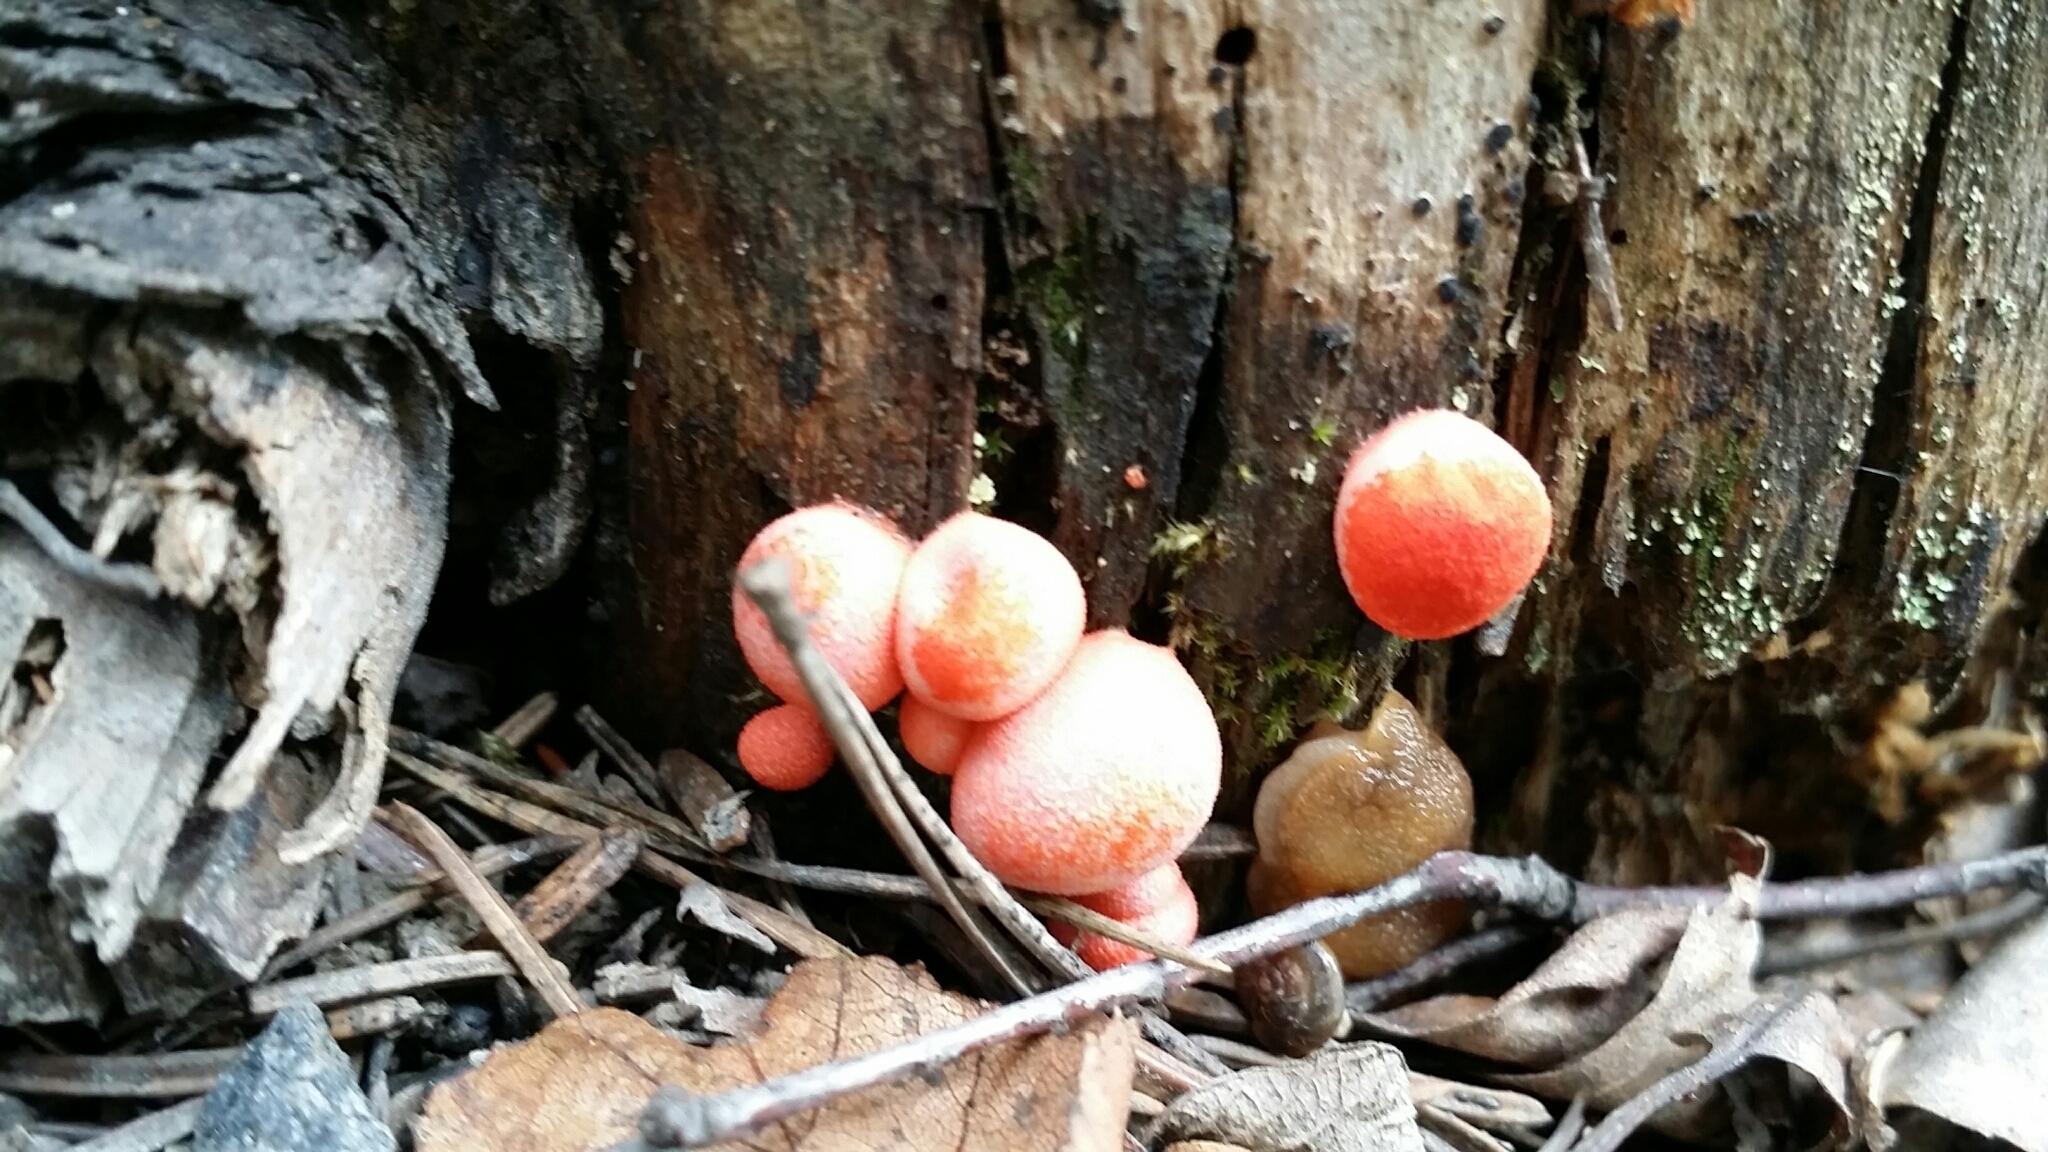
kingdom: Protozoa
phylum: Mycetozoa
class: Myxomycetes
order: Cribrariales
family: Tubiferaceae
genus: Lycogala
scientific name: Lycogala epidendrum
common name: Wolf's milk
